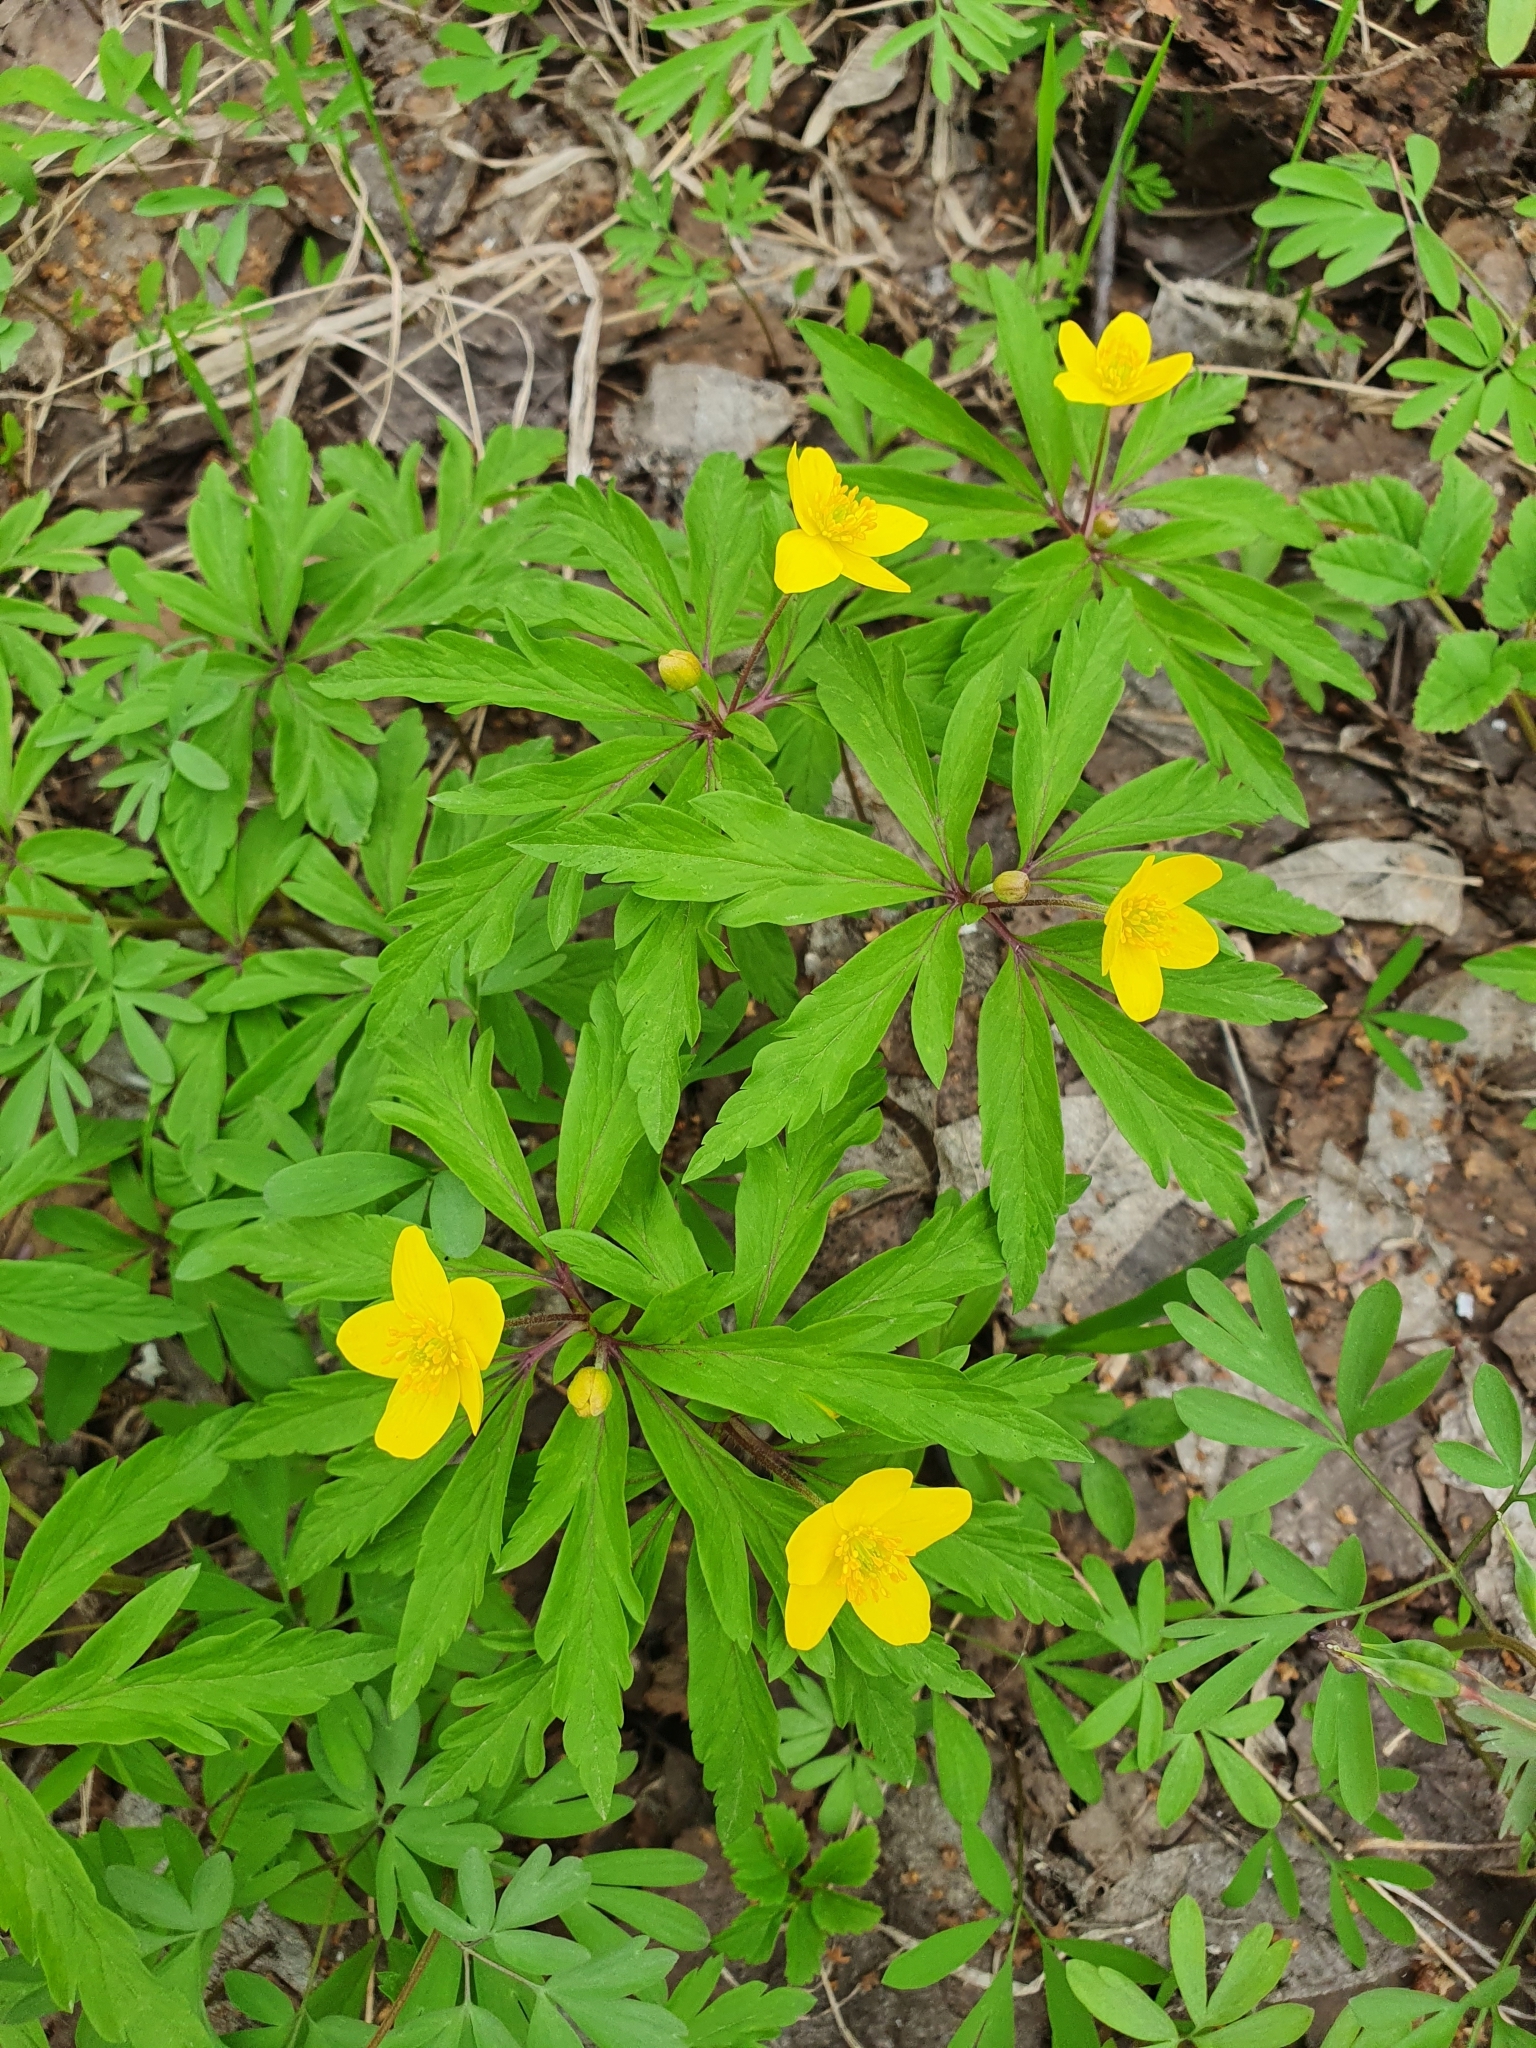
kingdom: Plantae
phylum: Tracheophyta
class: Magnoliopsida
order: Ranunculales
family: Ranunculaceae
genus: Anemone
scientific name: Anemone ranunculoides
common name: Yellow anemone
